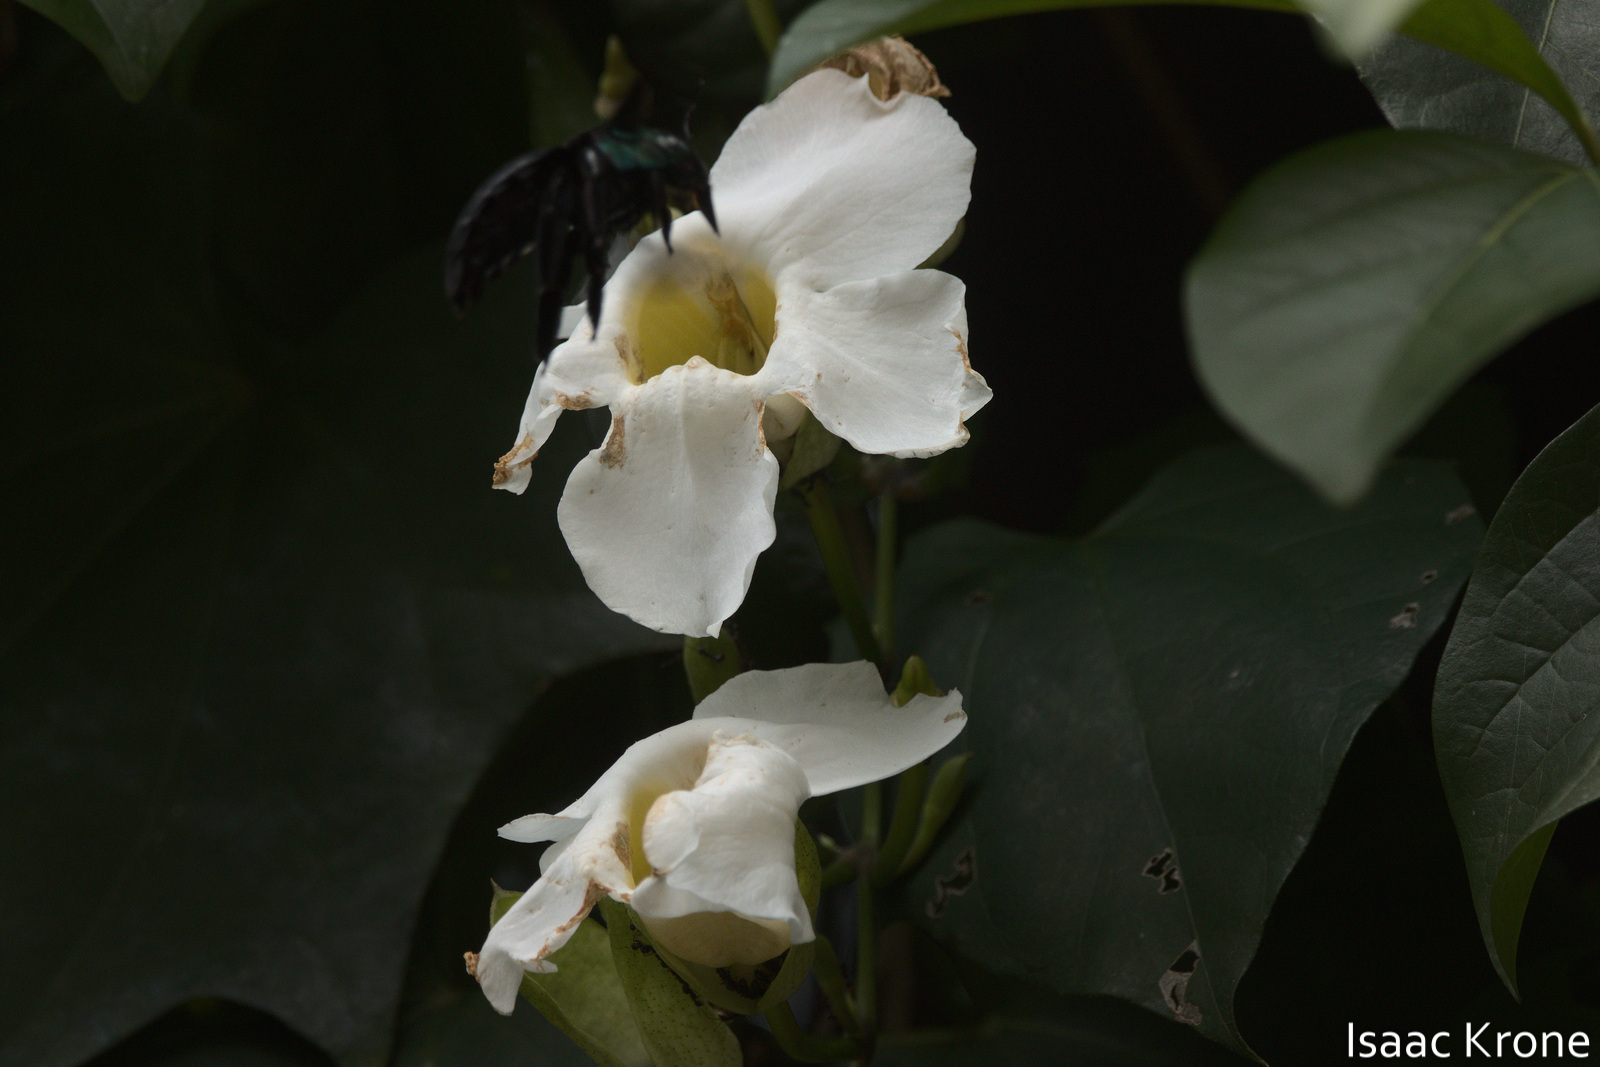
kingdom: Animalia
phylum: Arthropoda
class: Insecta
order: Hymenoptera
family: Apidae
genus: Xylocopa
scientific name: Xylocopa latipes
